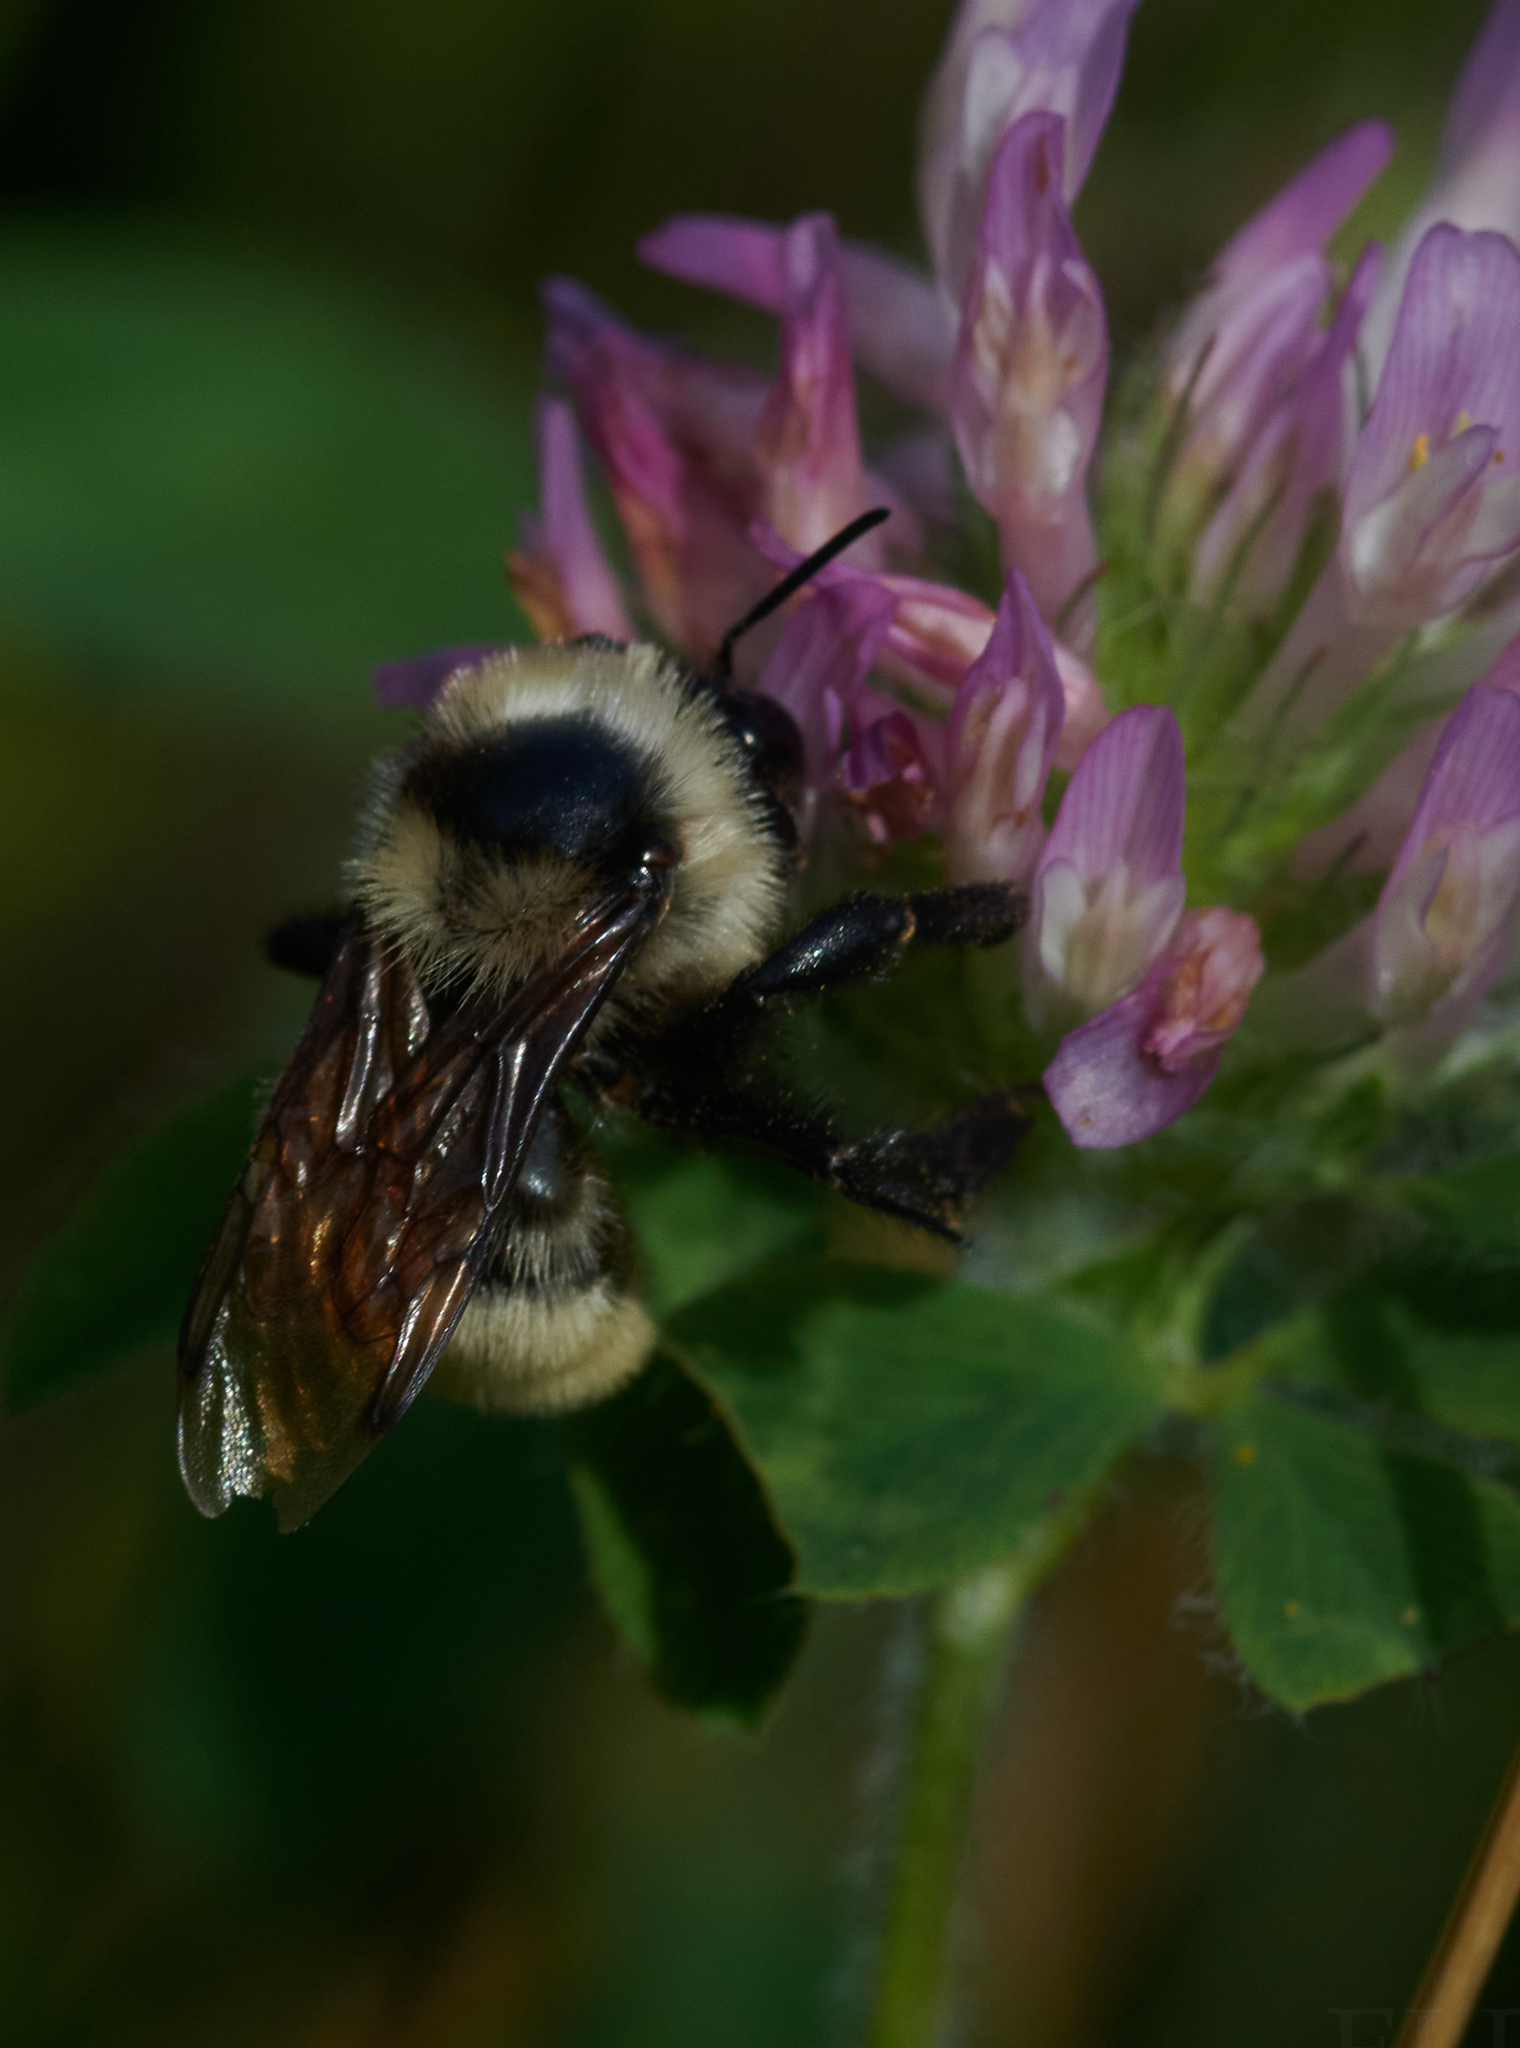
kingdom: Animalia
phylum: Arthropoda
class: Insecta
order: Hymenoptera
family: Apidae
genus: Bombus
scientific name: Bombus fervidus
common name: Yellow bumble bee
